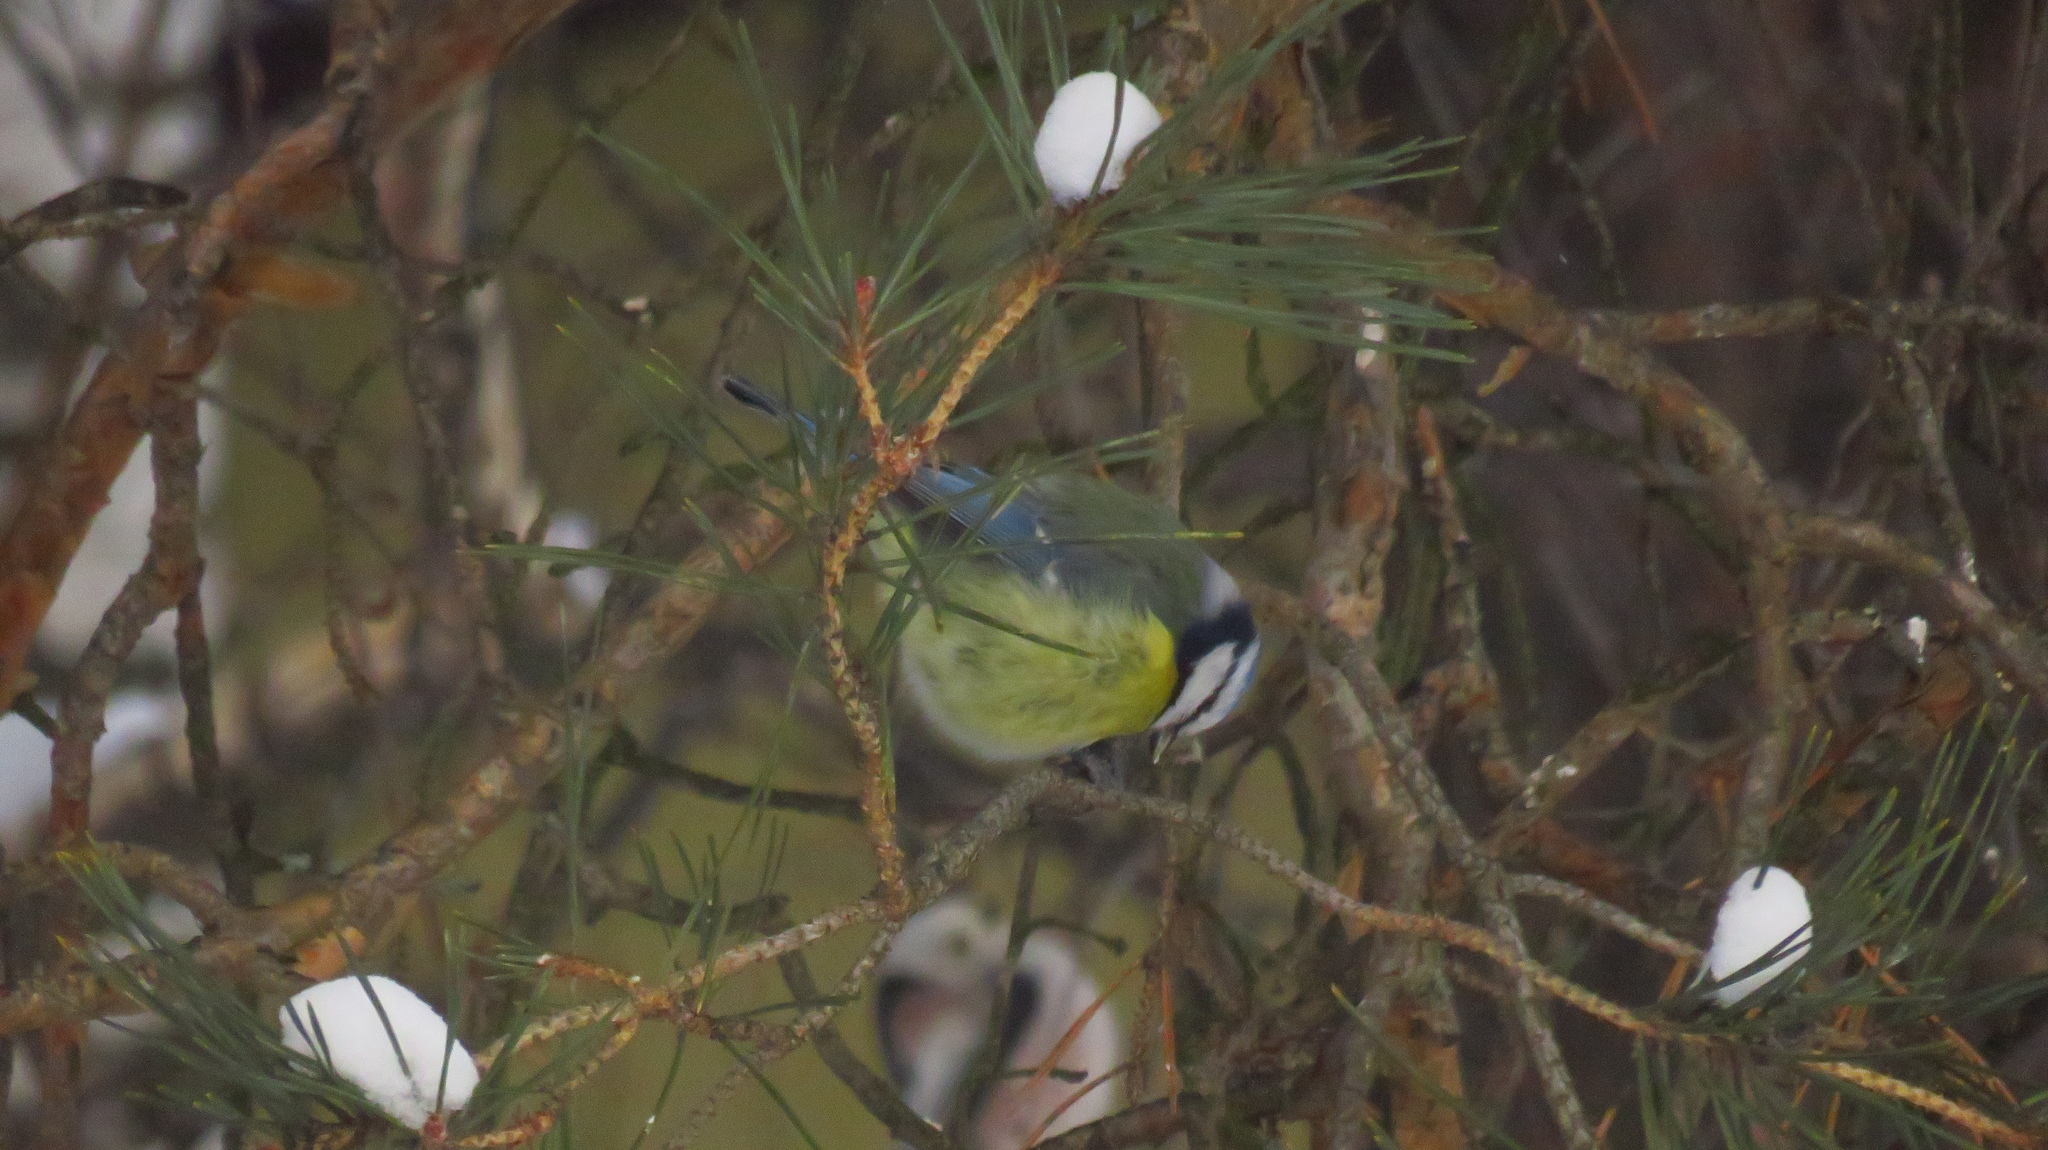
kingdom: Animalia
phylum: Chordata
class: Aves
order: Passeriformes
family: Paridae
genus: Cyanistes
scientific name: Cyanistes caeruleus
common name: Eurasian blue tit
